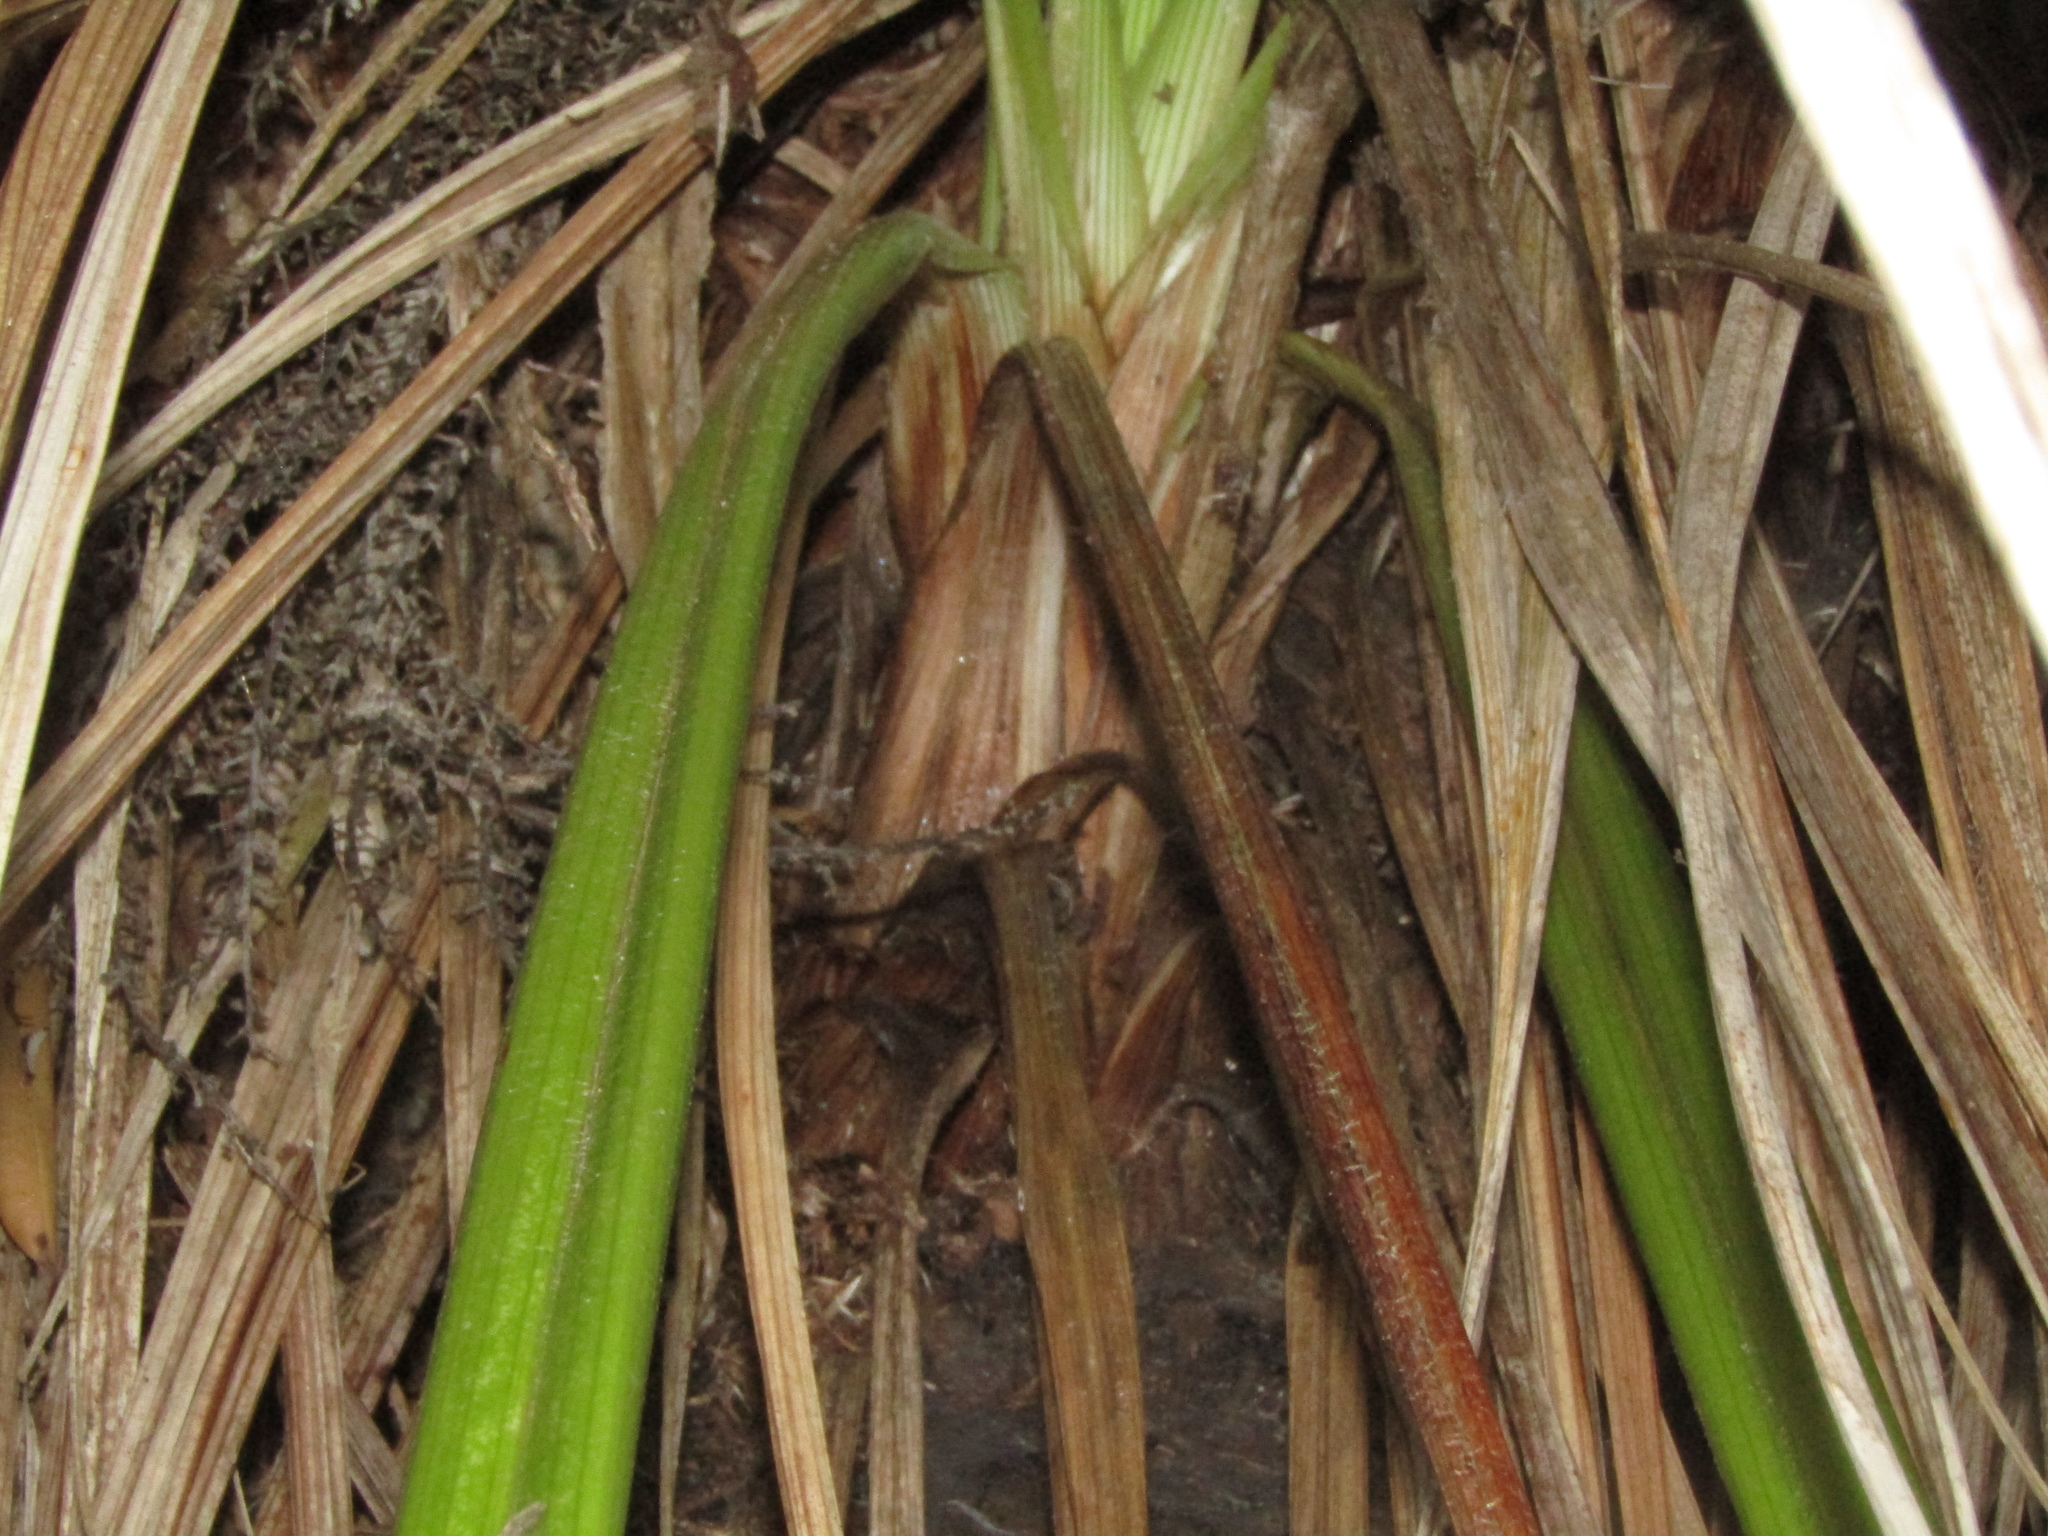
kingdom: Plantae
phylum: Tracheophyta
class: Liliopsida
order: Asparagales
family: Asteliaceae
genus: Astelia
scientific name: Astelia banksii
